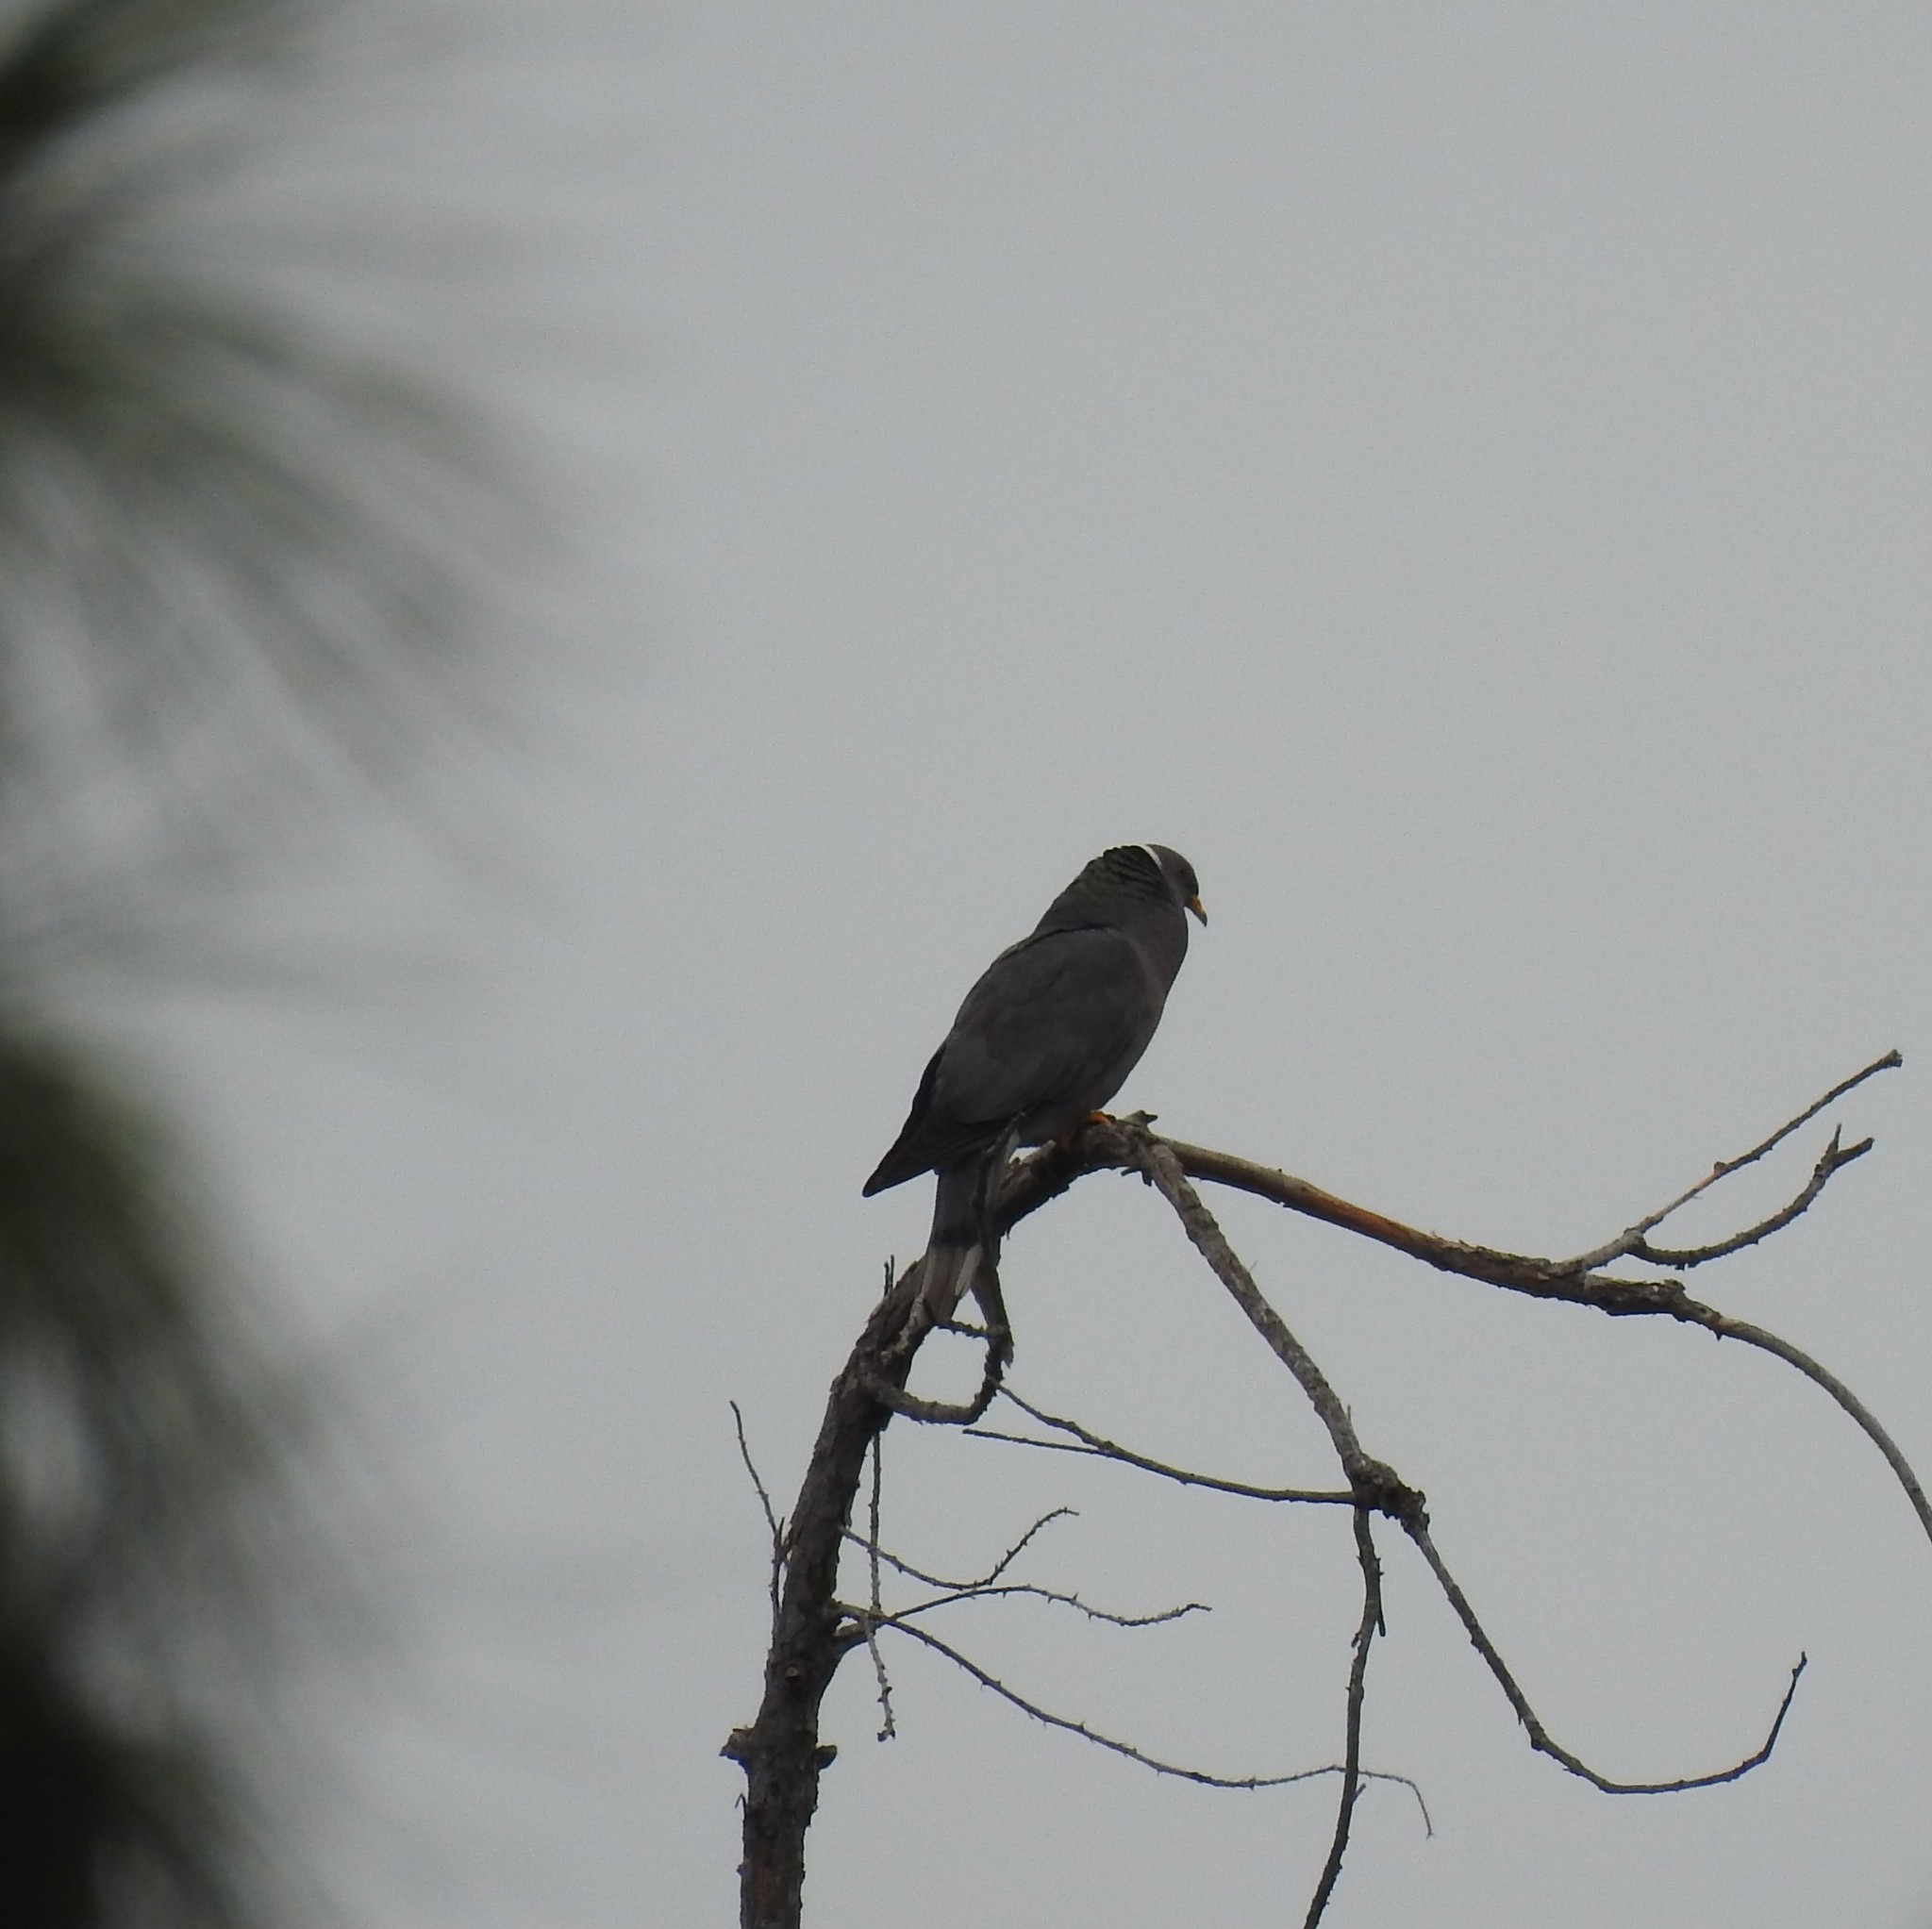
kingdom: Animalia
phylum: Chordata
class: Aves
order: Columbiformes
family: Columbidae
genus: Patagioenas
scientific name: Patagioenas fasciata
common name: Band-tailed pigeon
